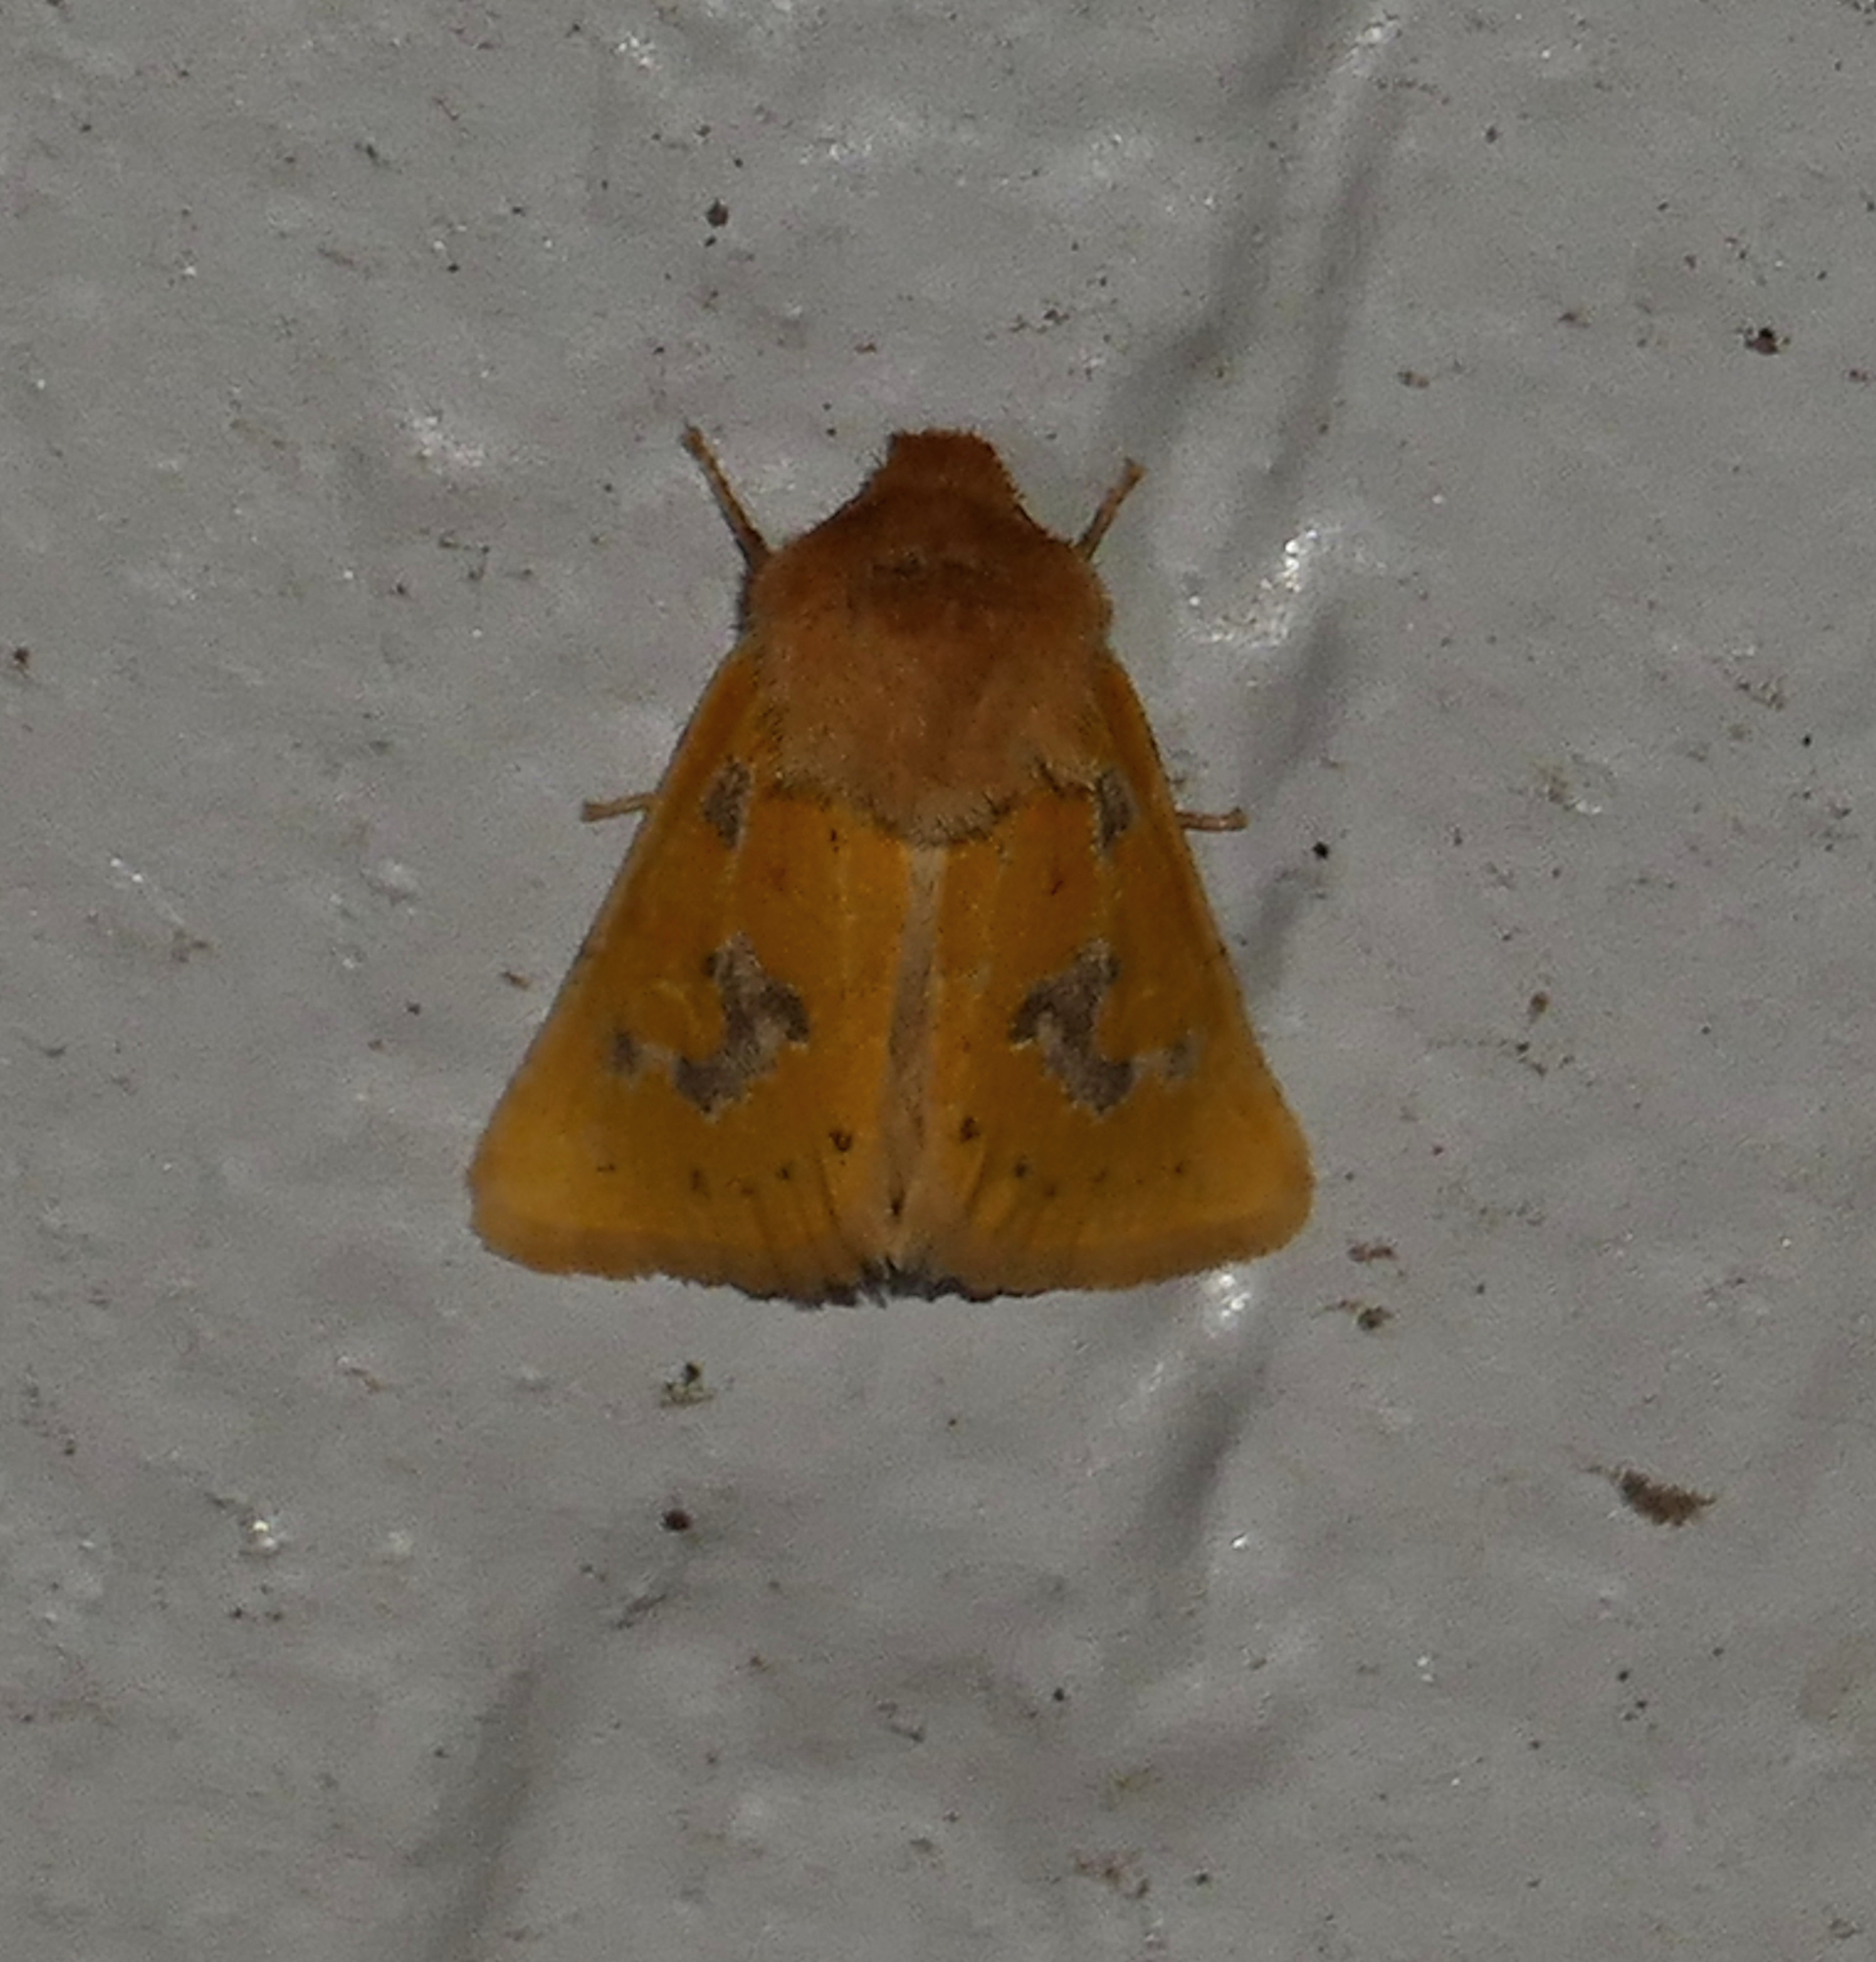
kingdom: Animalia
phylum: Arthropoda
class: Insecta
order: Lepidoptera
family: Noctuidae
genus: Nocloa
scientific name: Nocloa nanata
